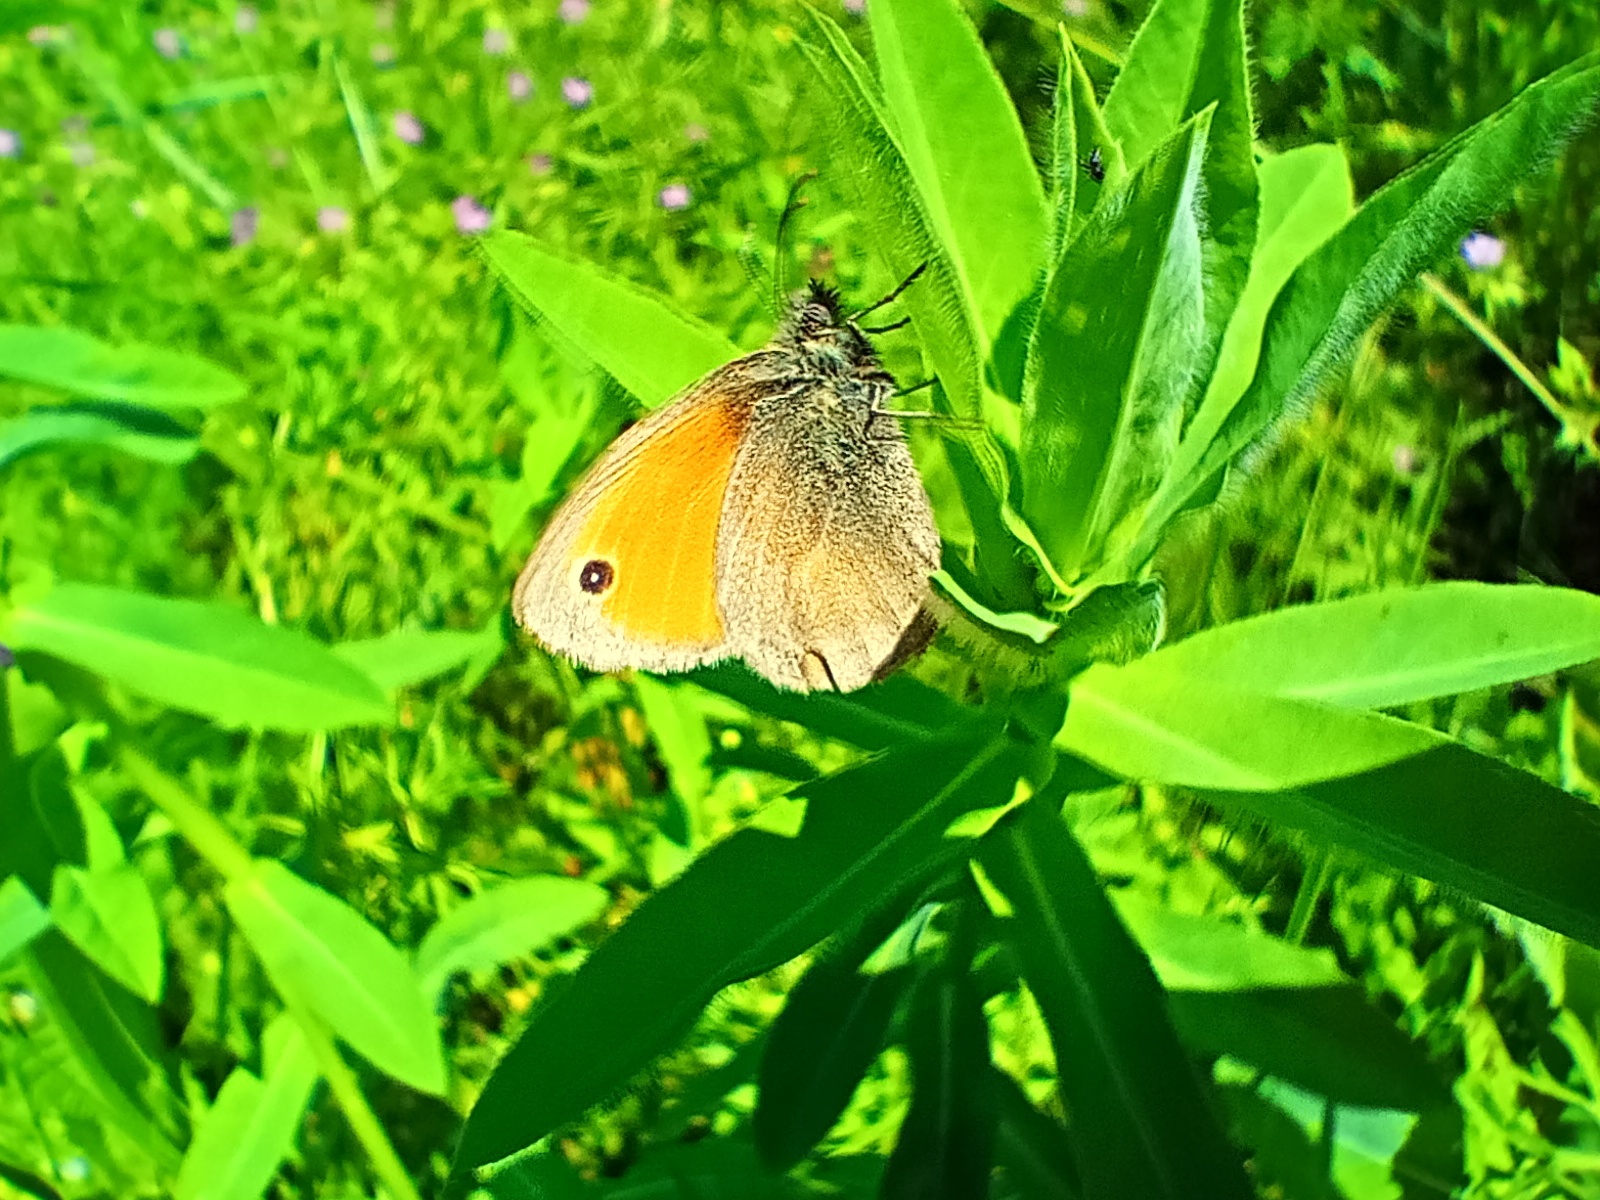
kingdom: Animalia
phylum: Arthropoda
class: Insecta
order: Lepidoptera
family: Nymphalidae
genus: Coenonympha
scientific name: Coenonympha pamphilus
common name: Small heath
